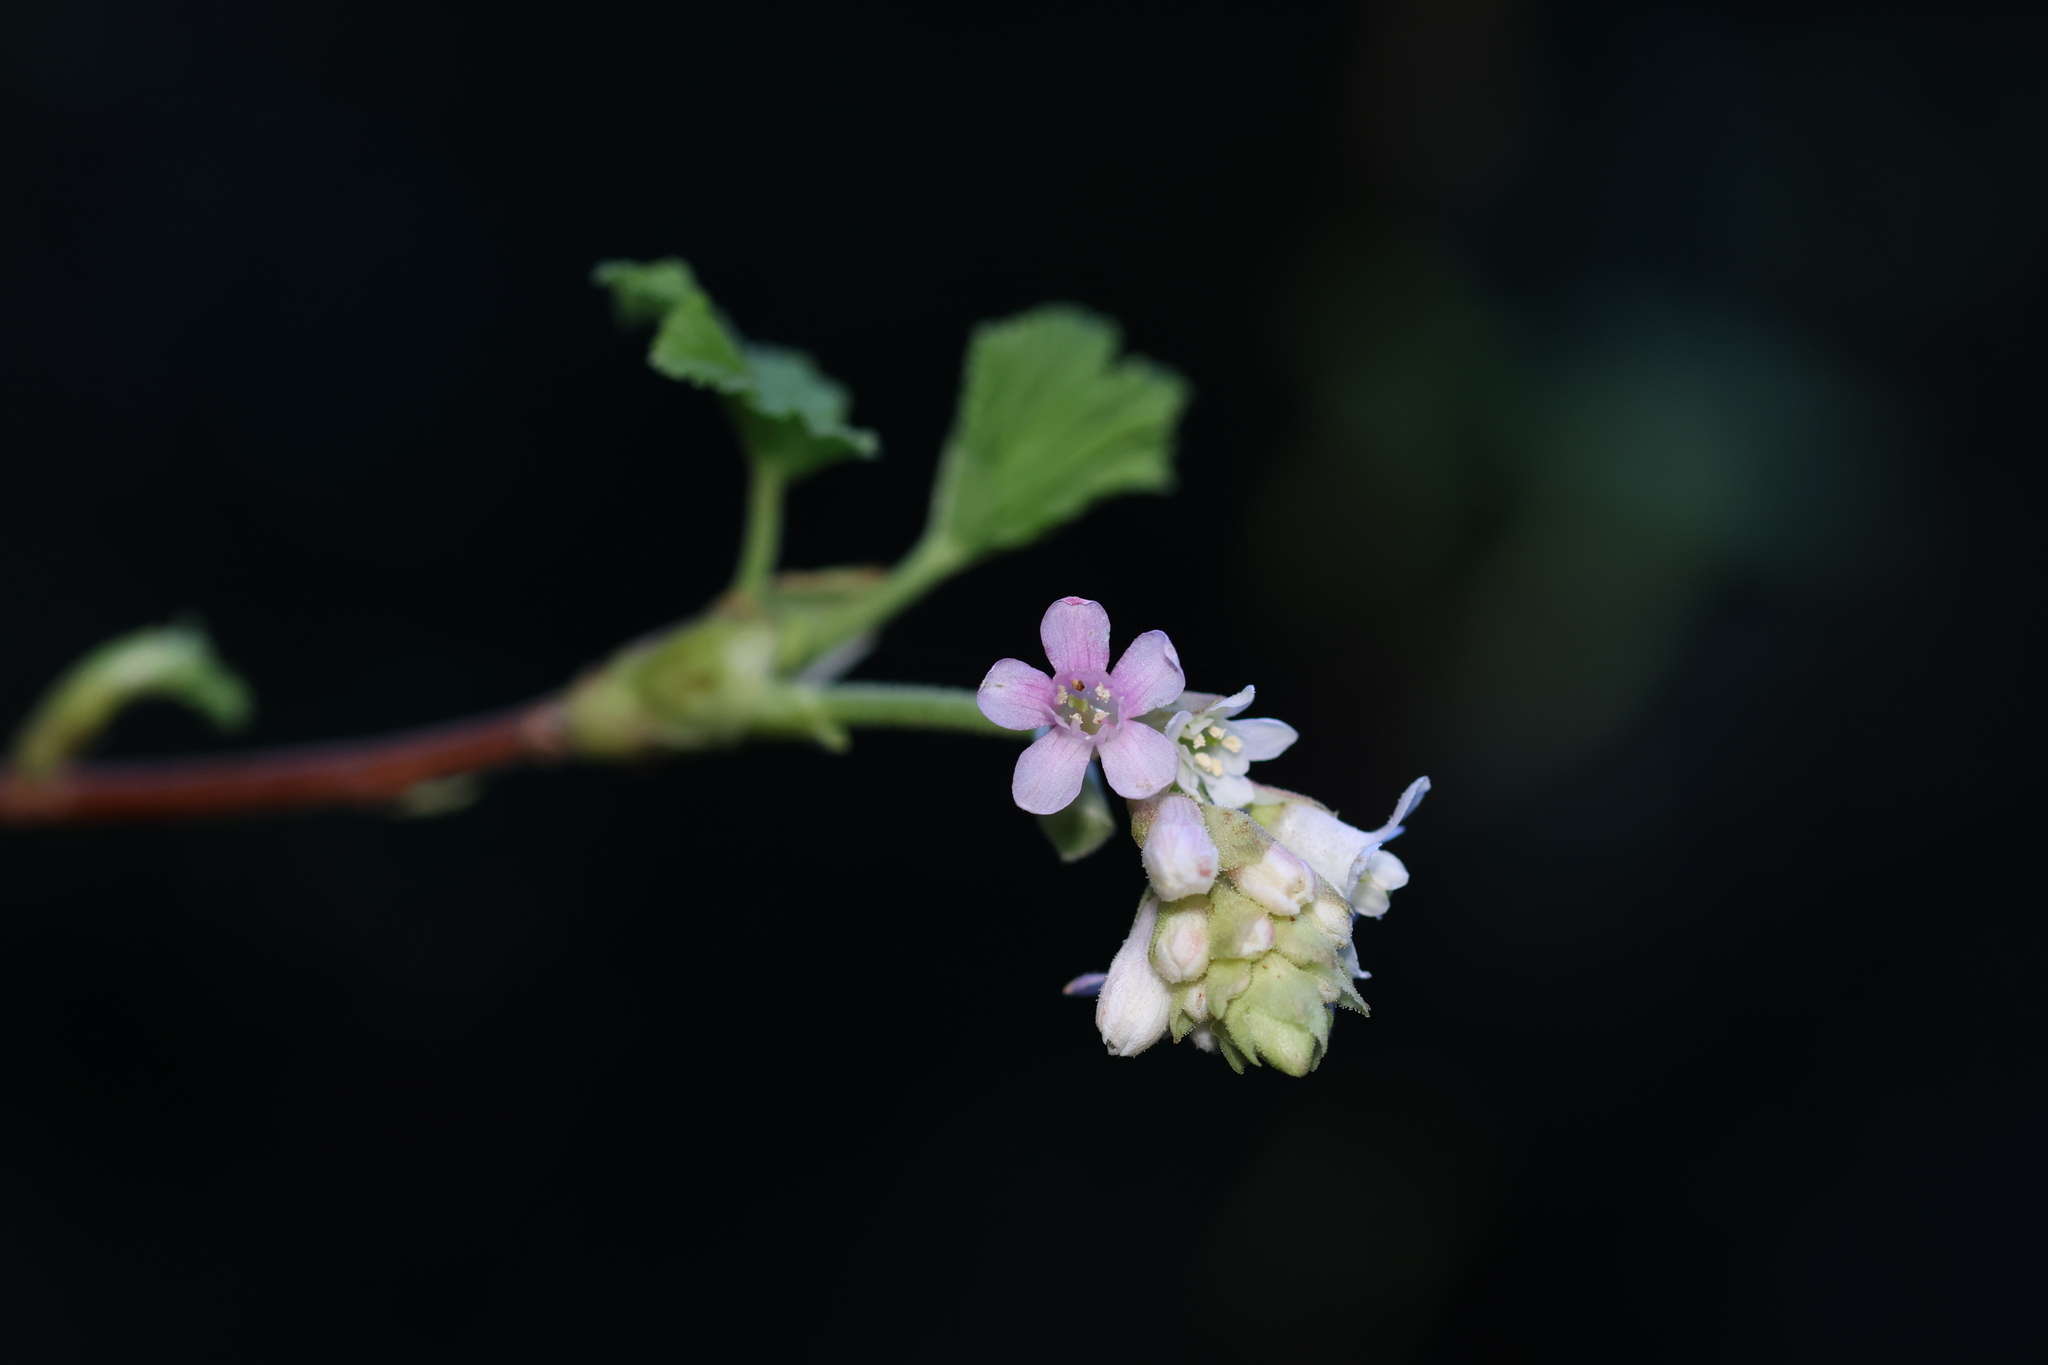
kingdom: Plantae
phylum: Tracheophyta
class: Magnoliopsida
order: Saxifragales
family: Grossulariaceae
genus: Ribes
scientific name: Ribes sanguineum
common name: Flowering currant
